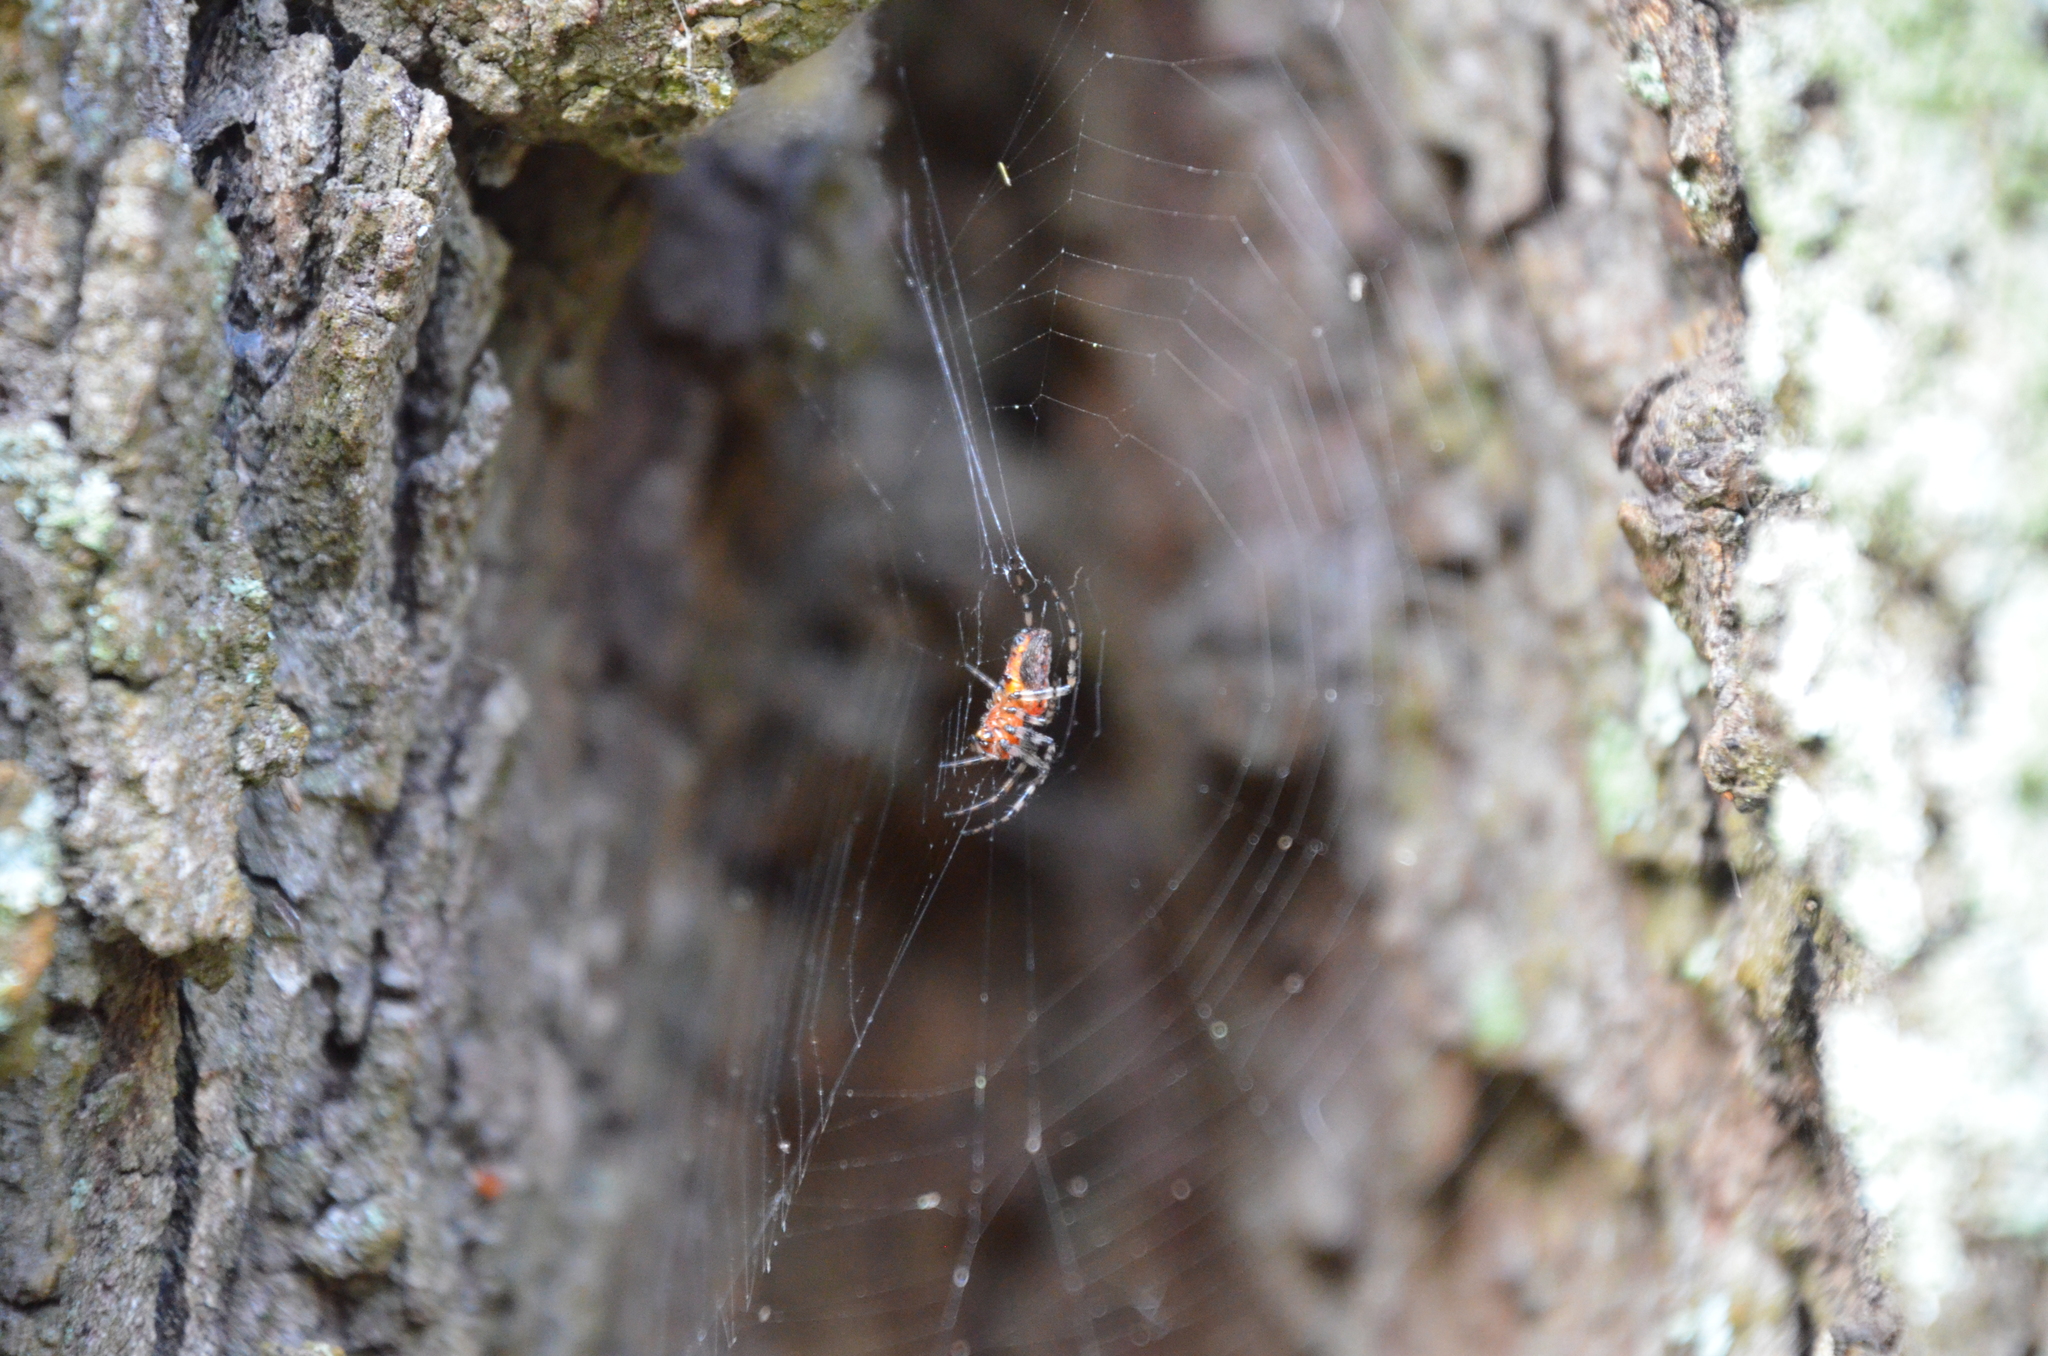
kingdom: Animalia
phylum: Arthropoda
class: Arachnida
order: Araneae
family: Araneidae
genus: Alpaida
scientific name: Alpaida gallardoi
